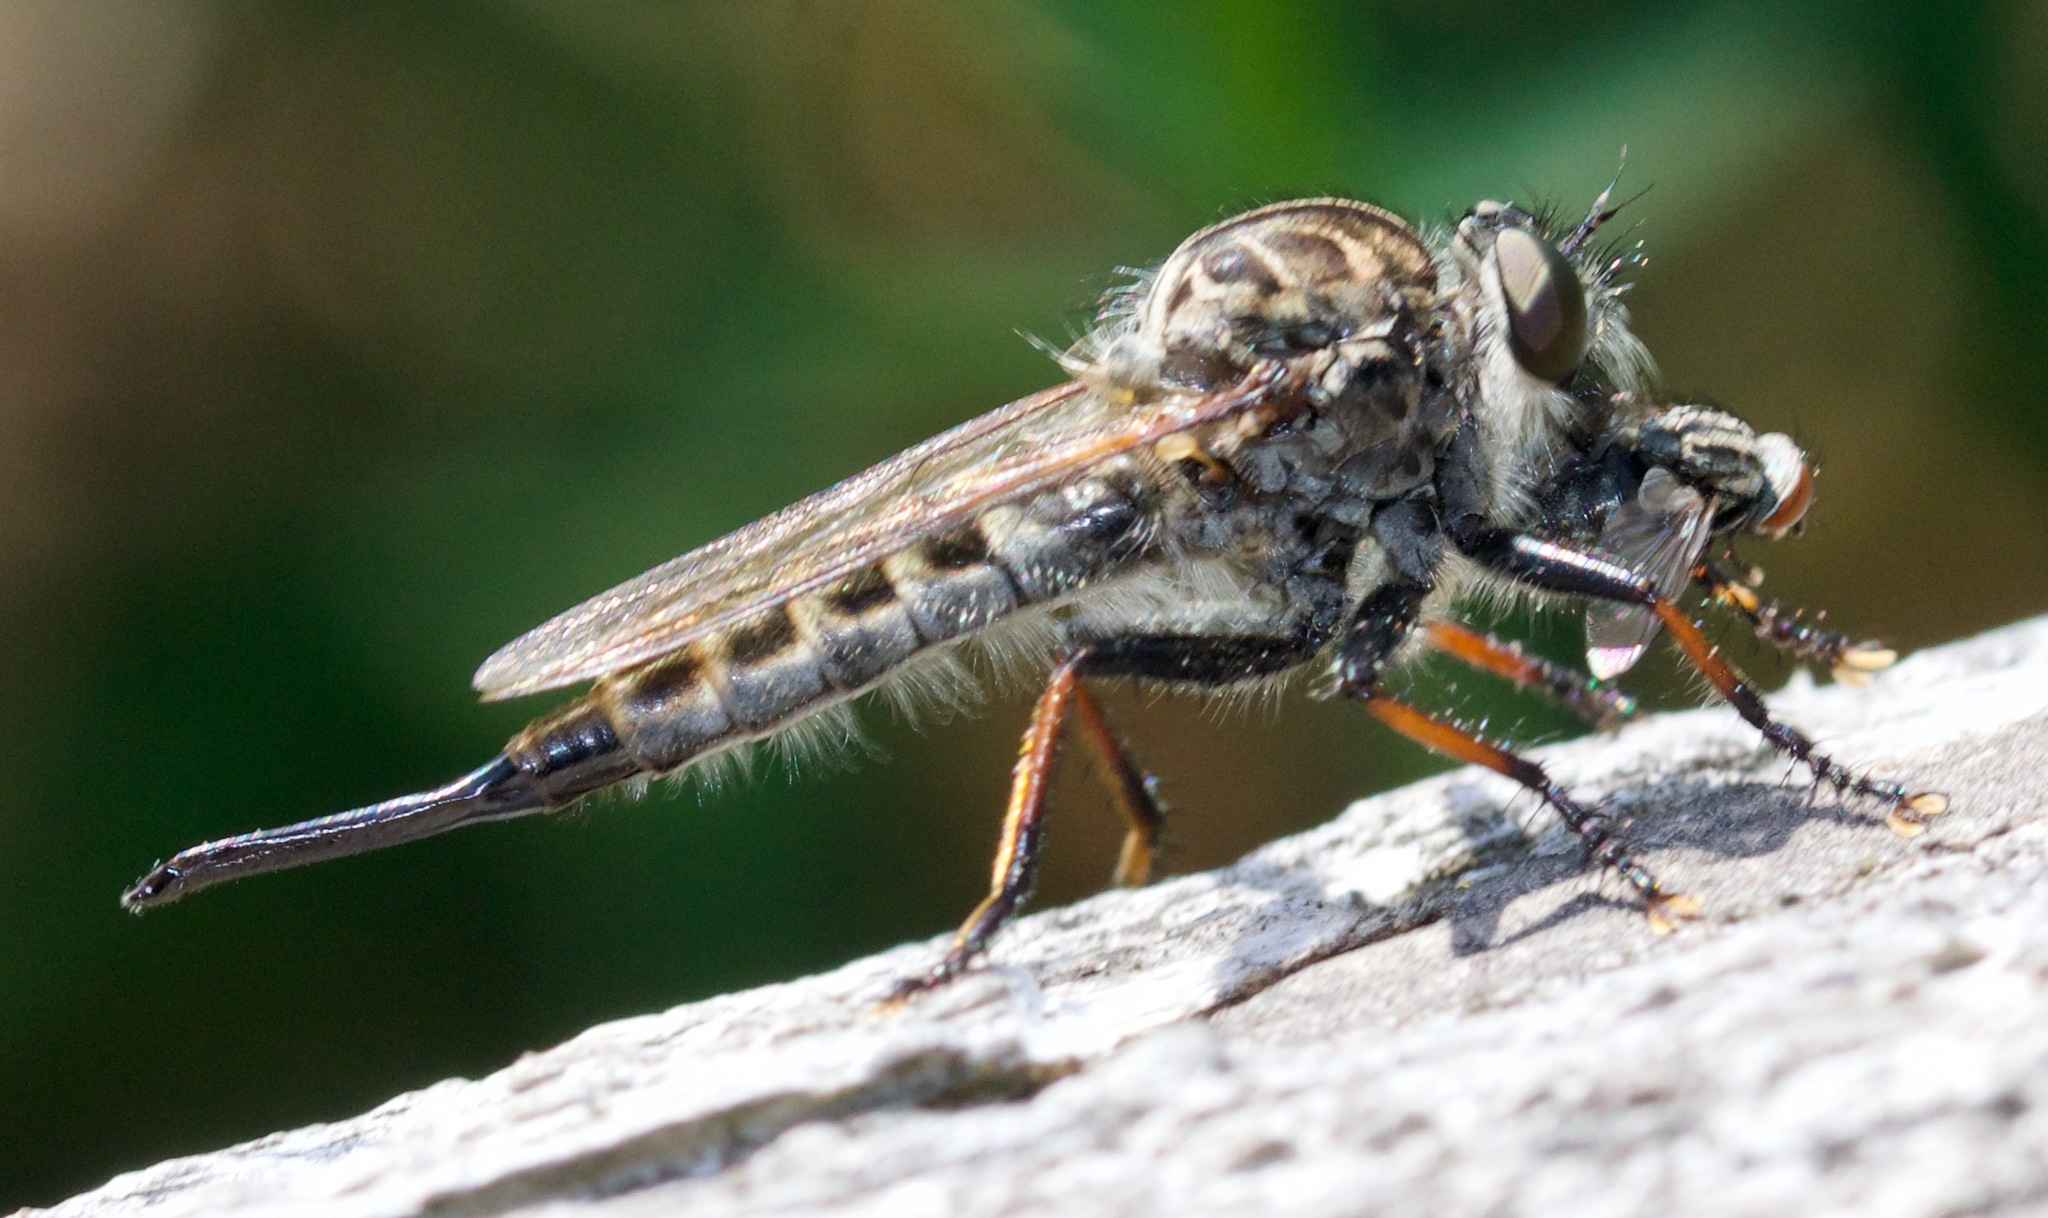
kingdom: Animalia
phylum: Arthropoda
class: Insecta
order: Diptera
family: Asilidae
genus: Efferia
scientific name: Efferia aestuans
